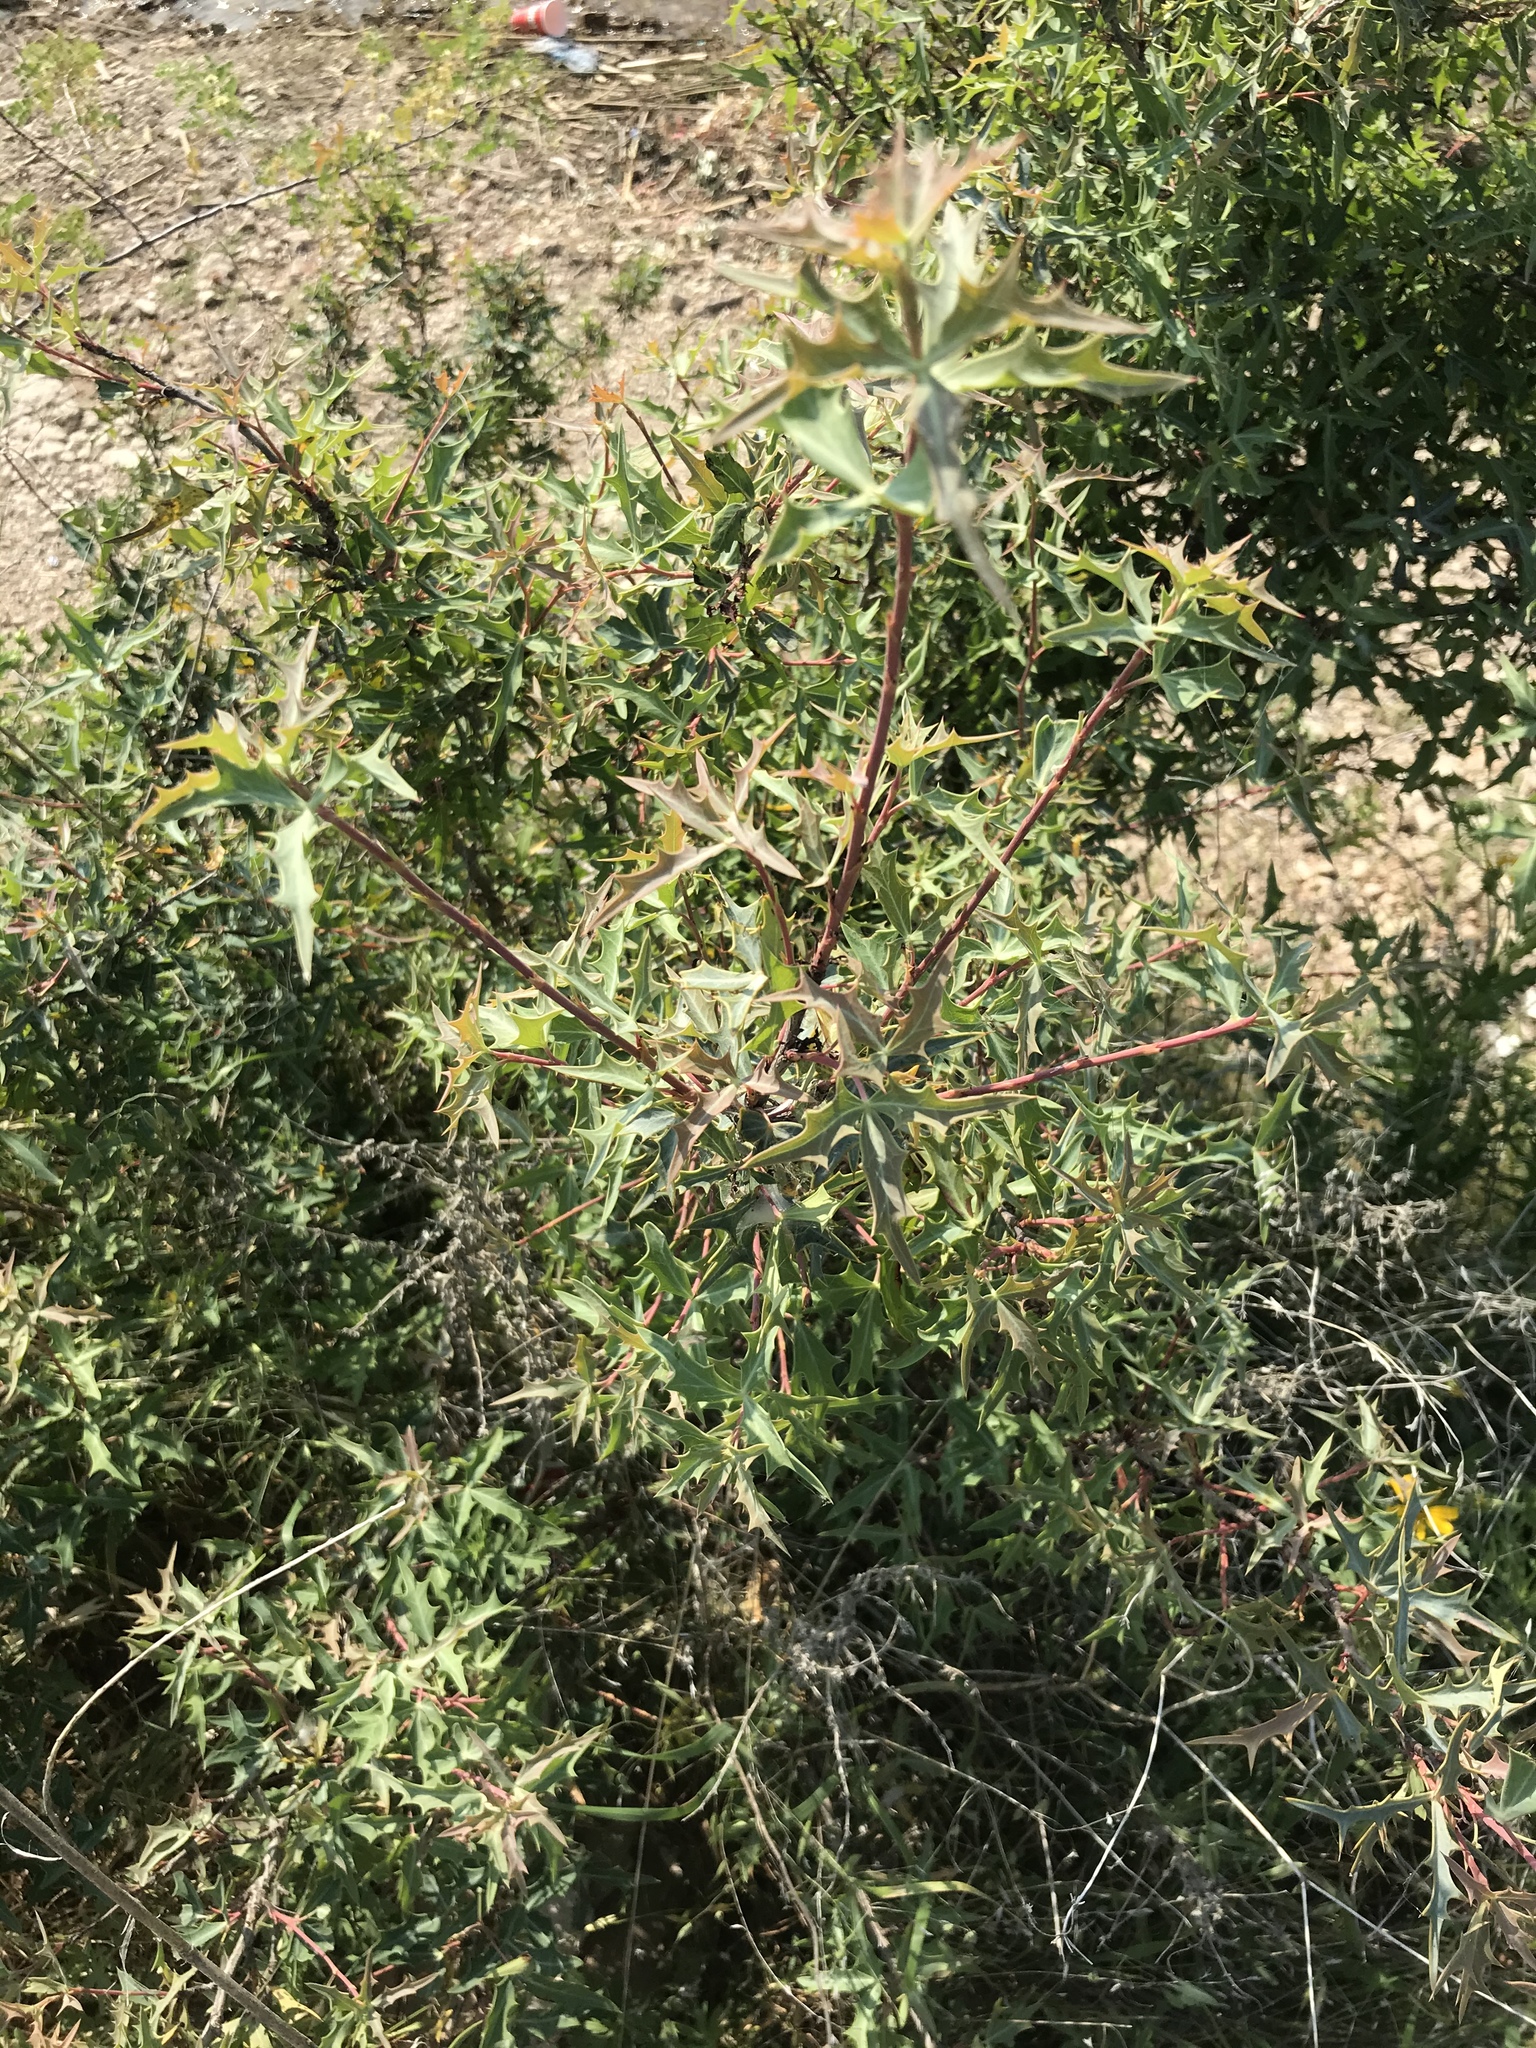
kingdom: Plantae
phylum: Tracheophyta
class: Magnoliopsida
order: Ranunculales
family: Berberidaceae
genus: Alloberberis
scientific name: Alloberberis trifoliolata
